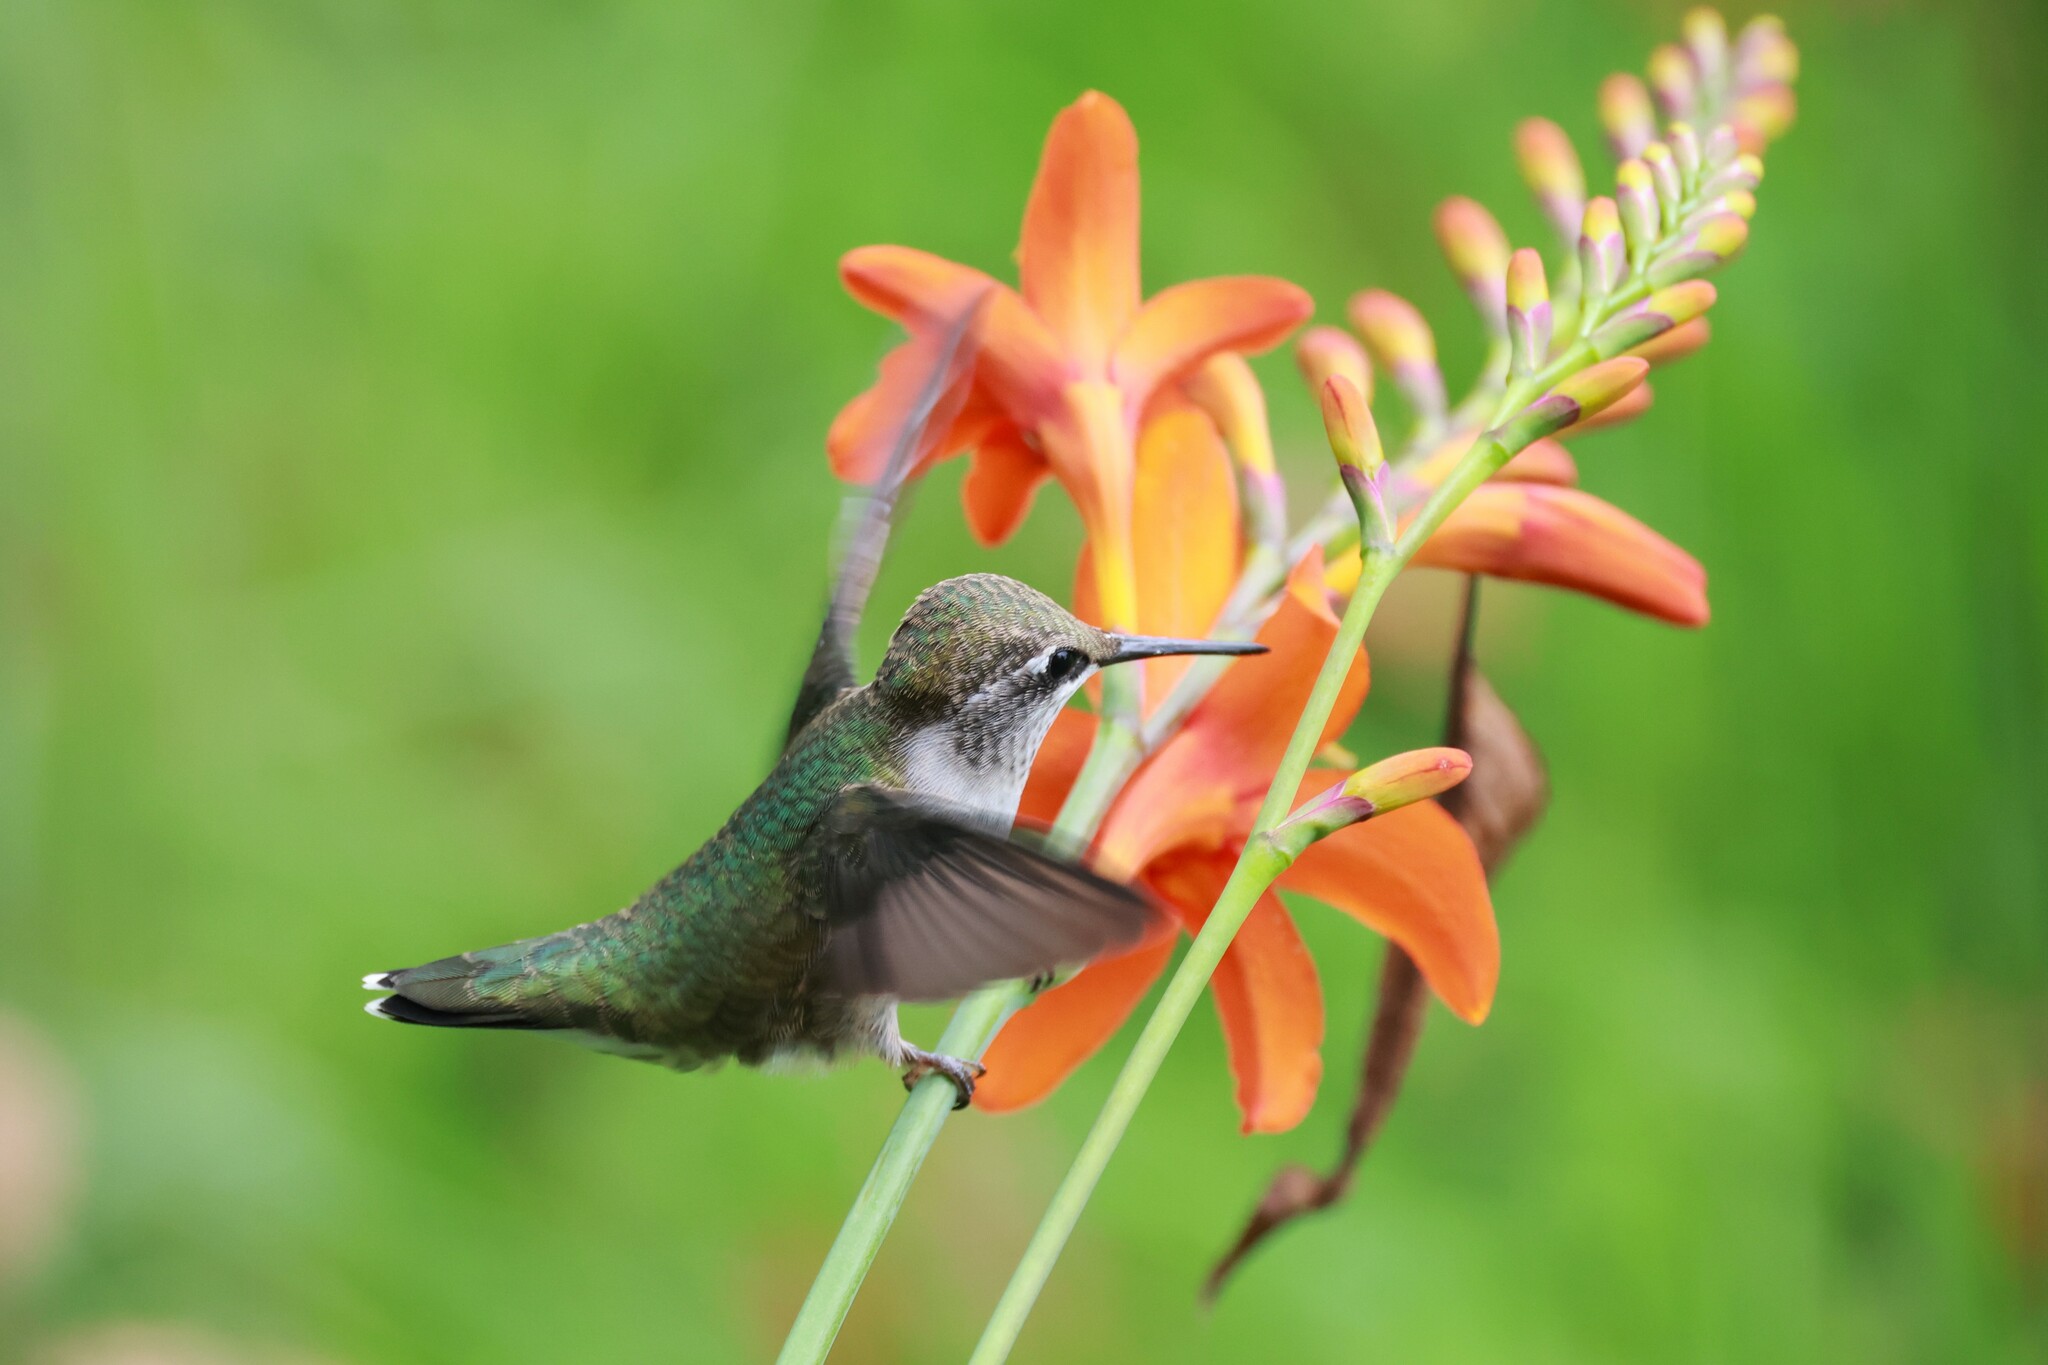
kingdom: Animalia
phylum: Chordata
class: Aves
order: Apodiformes
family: Trochilidae
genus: Archilochus
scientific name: Archilochus colubris
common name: Ruby-throated hummingbird
